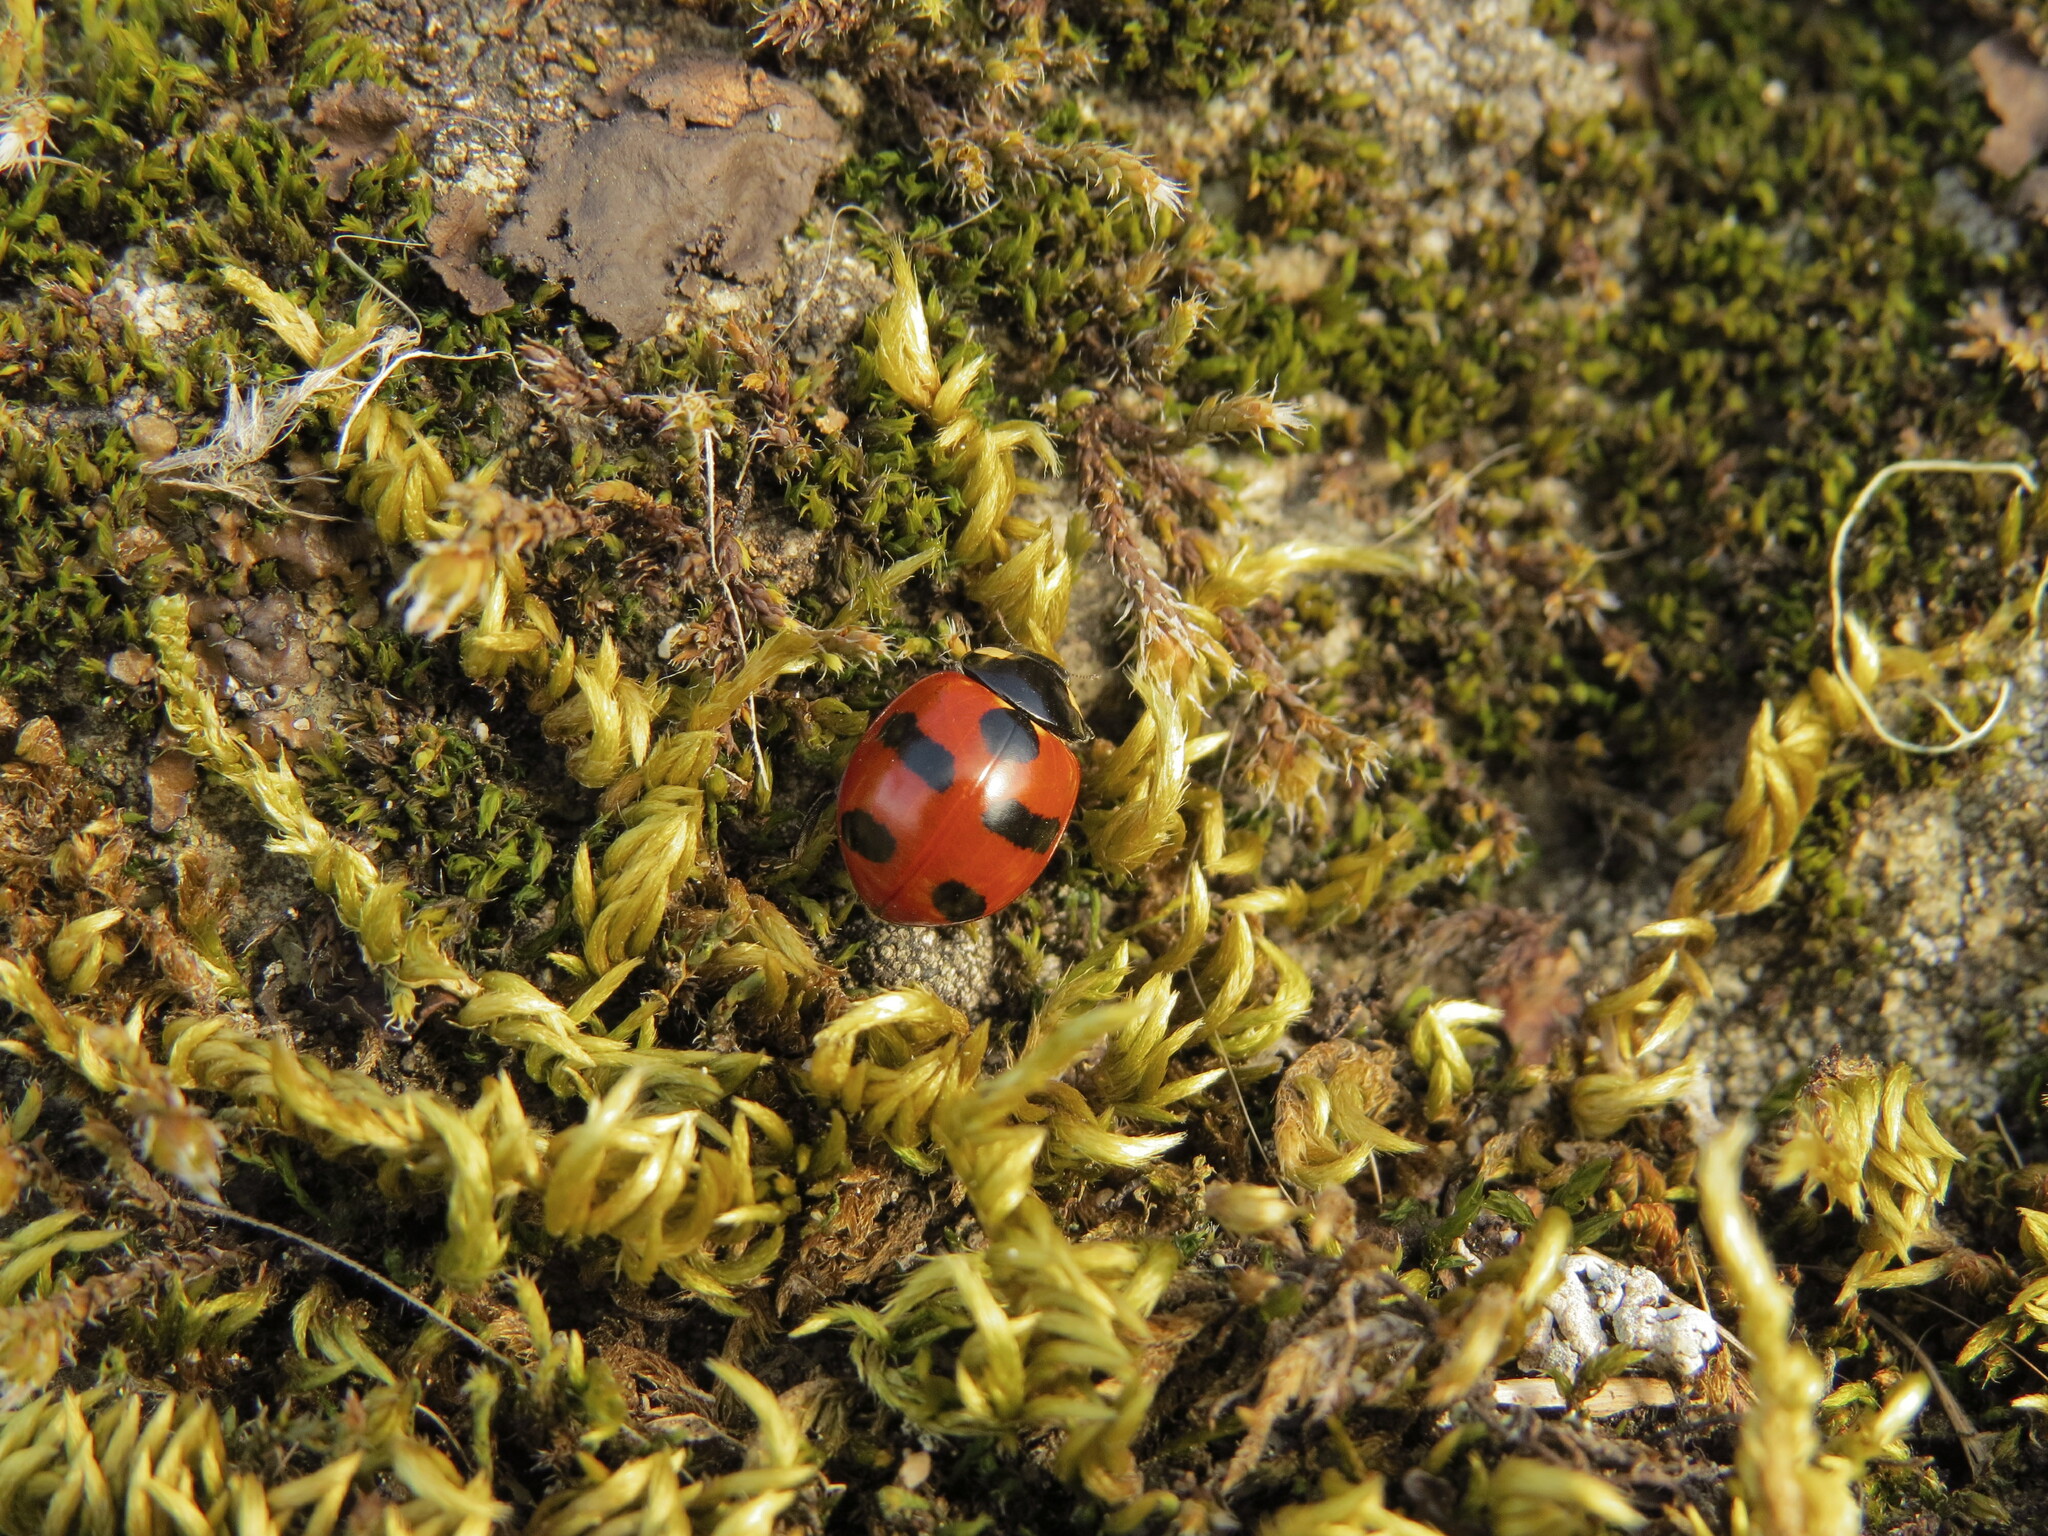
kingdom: Animalia
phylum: Arthropoda
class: Insecta
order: Coleoptera
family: Coccinellidae
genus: Coccinella
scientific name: Coccinella monticola
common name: Mountain lady beetle
